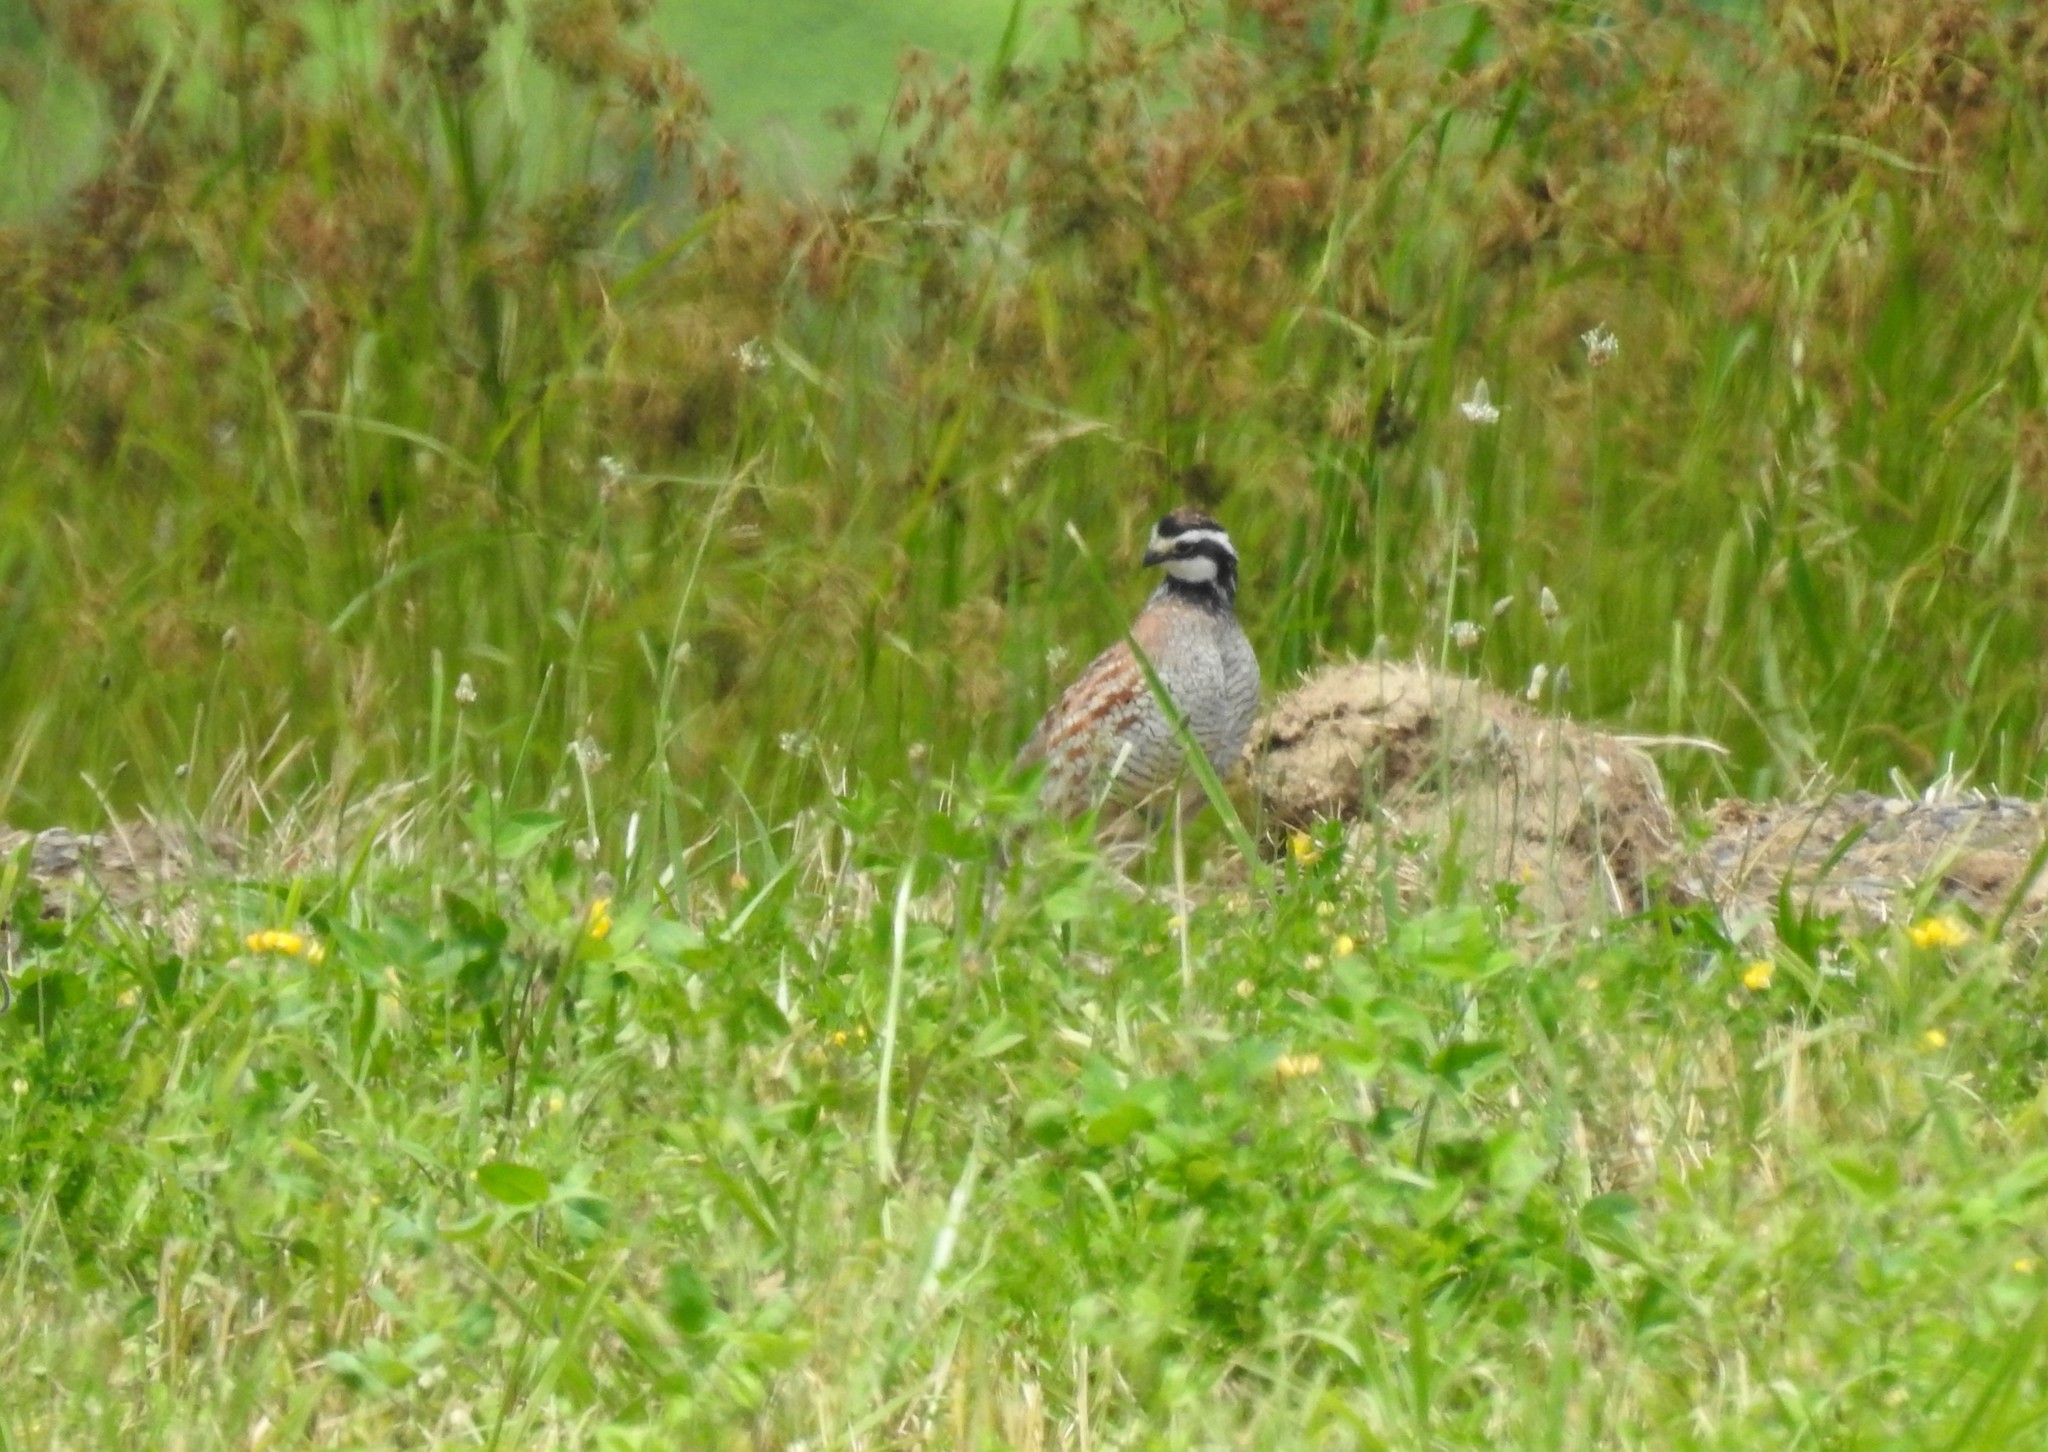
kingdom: Animalia
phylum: Chordata
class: Aves
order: Galliformes
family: Odontophoridae
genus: Colinus
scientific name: Colinus virginianus
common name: Northern bobwhite
